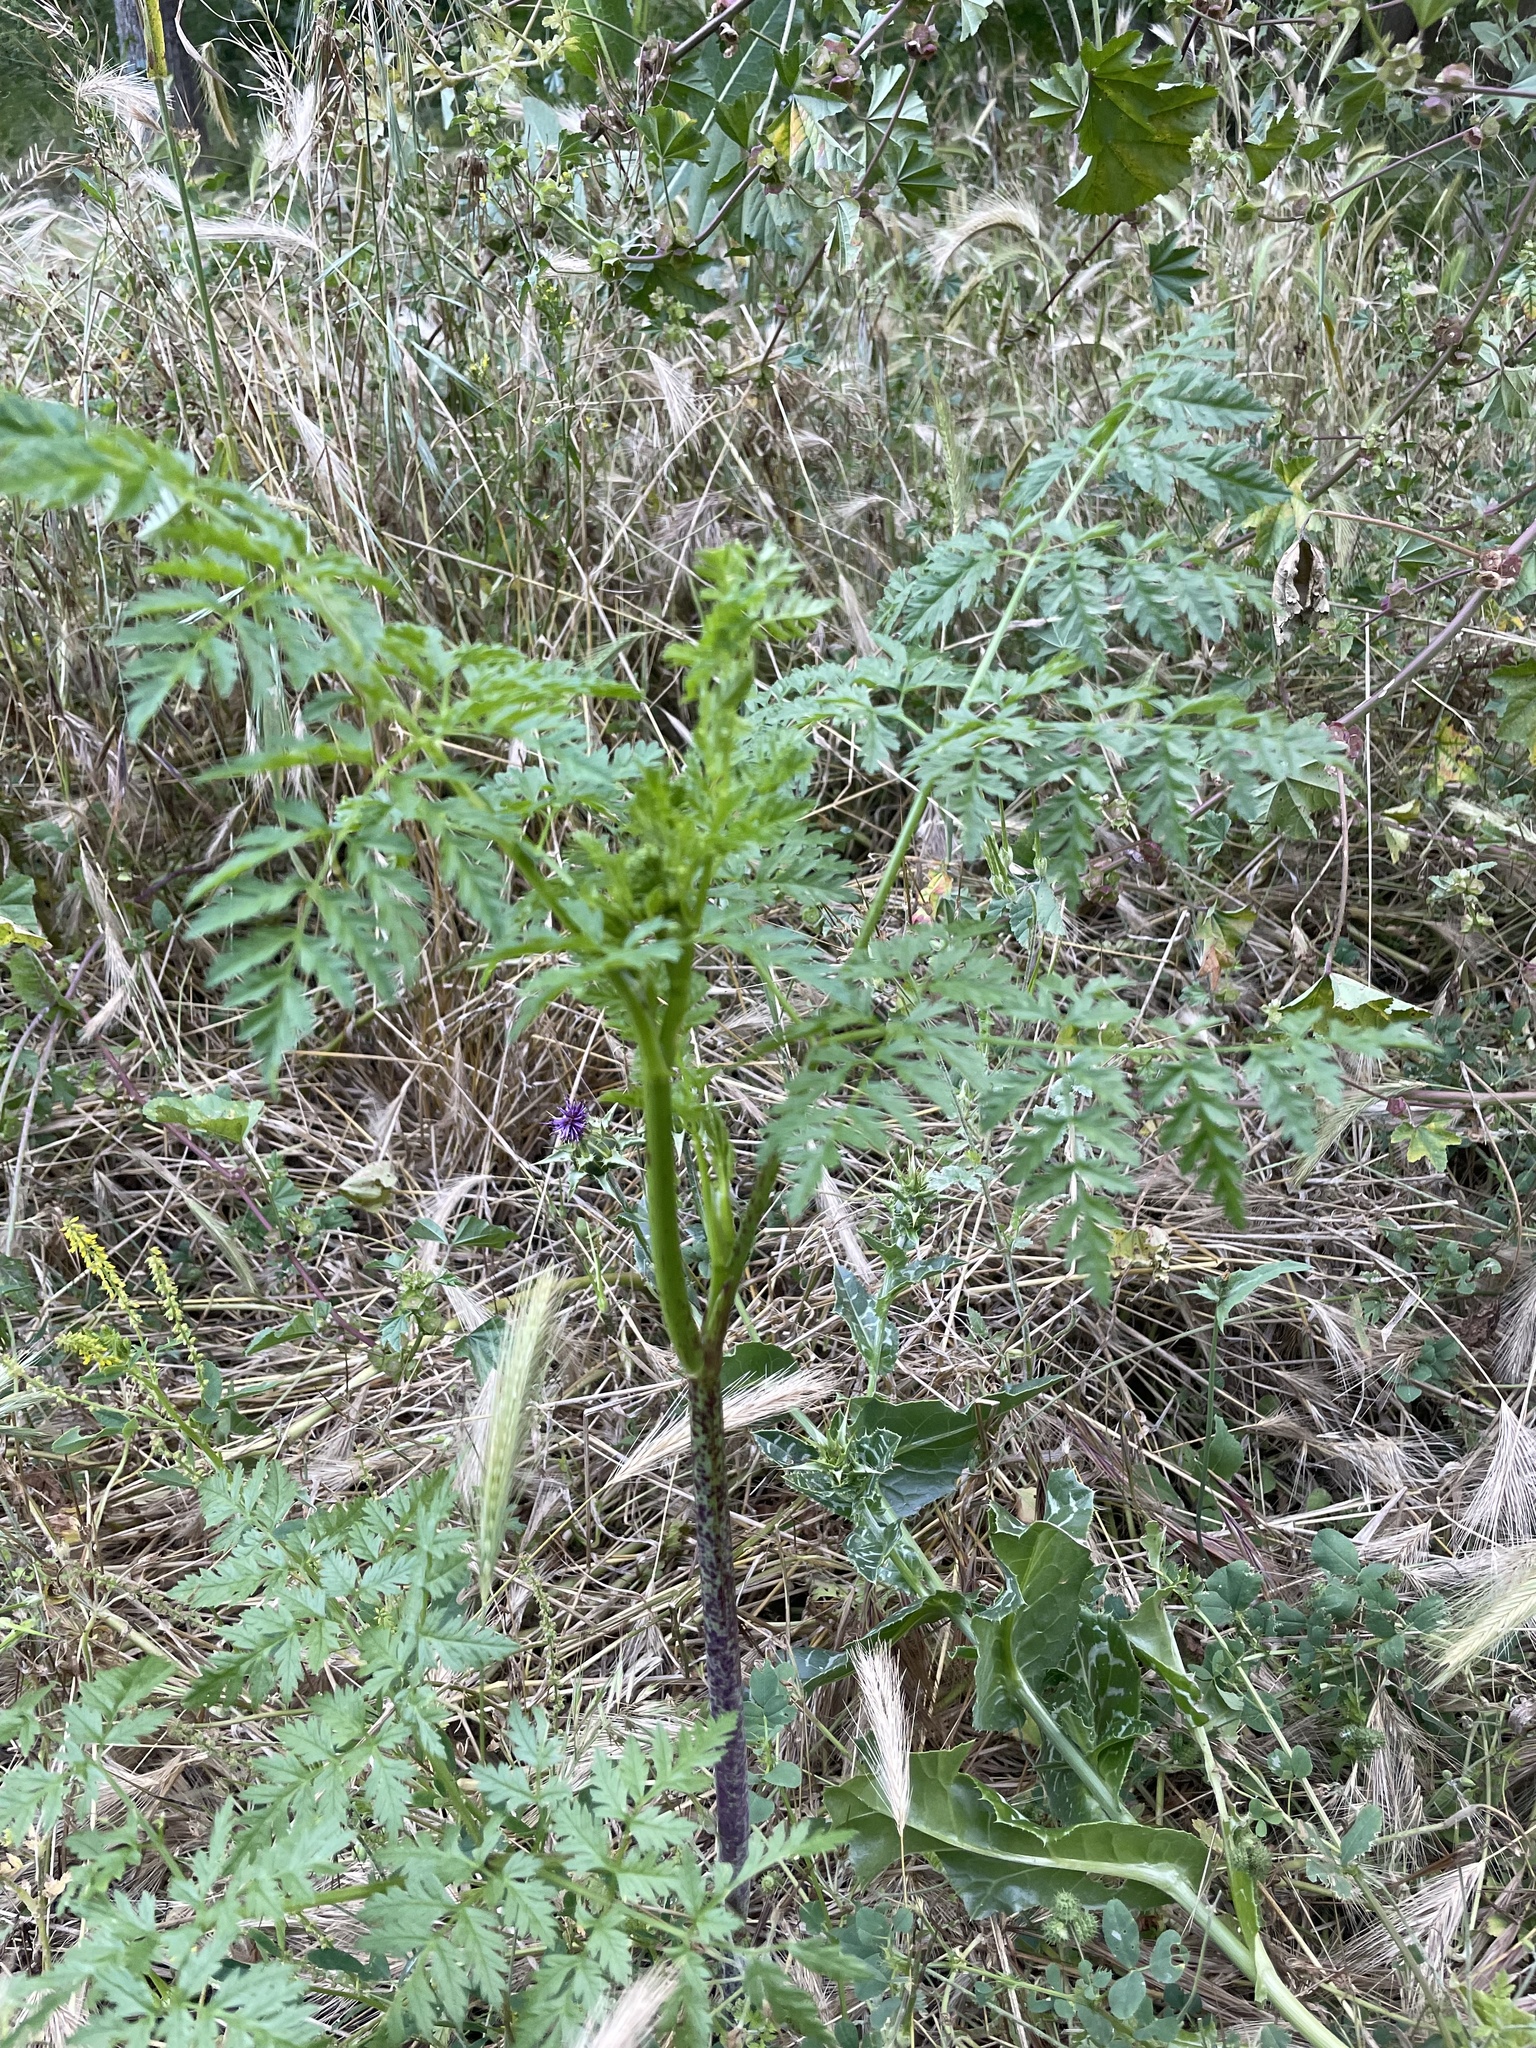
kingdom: Plantae
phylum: Tracheophyta
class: Magnoliopsida
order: Apiales
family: Apiaceae
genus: Conium
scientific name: Conium maculatum
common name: Hemlock
